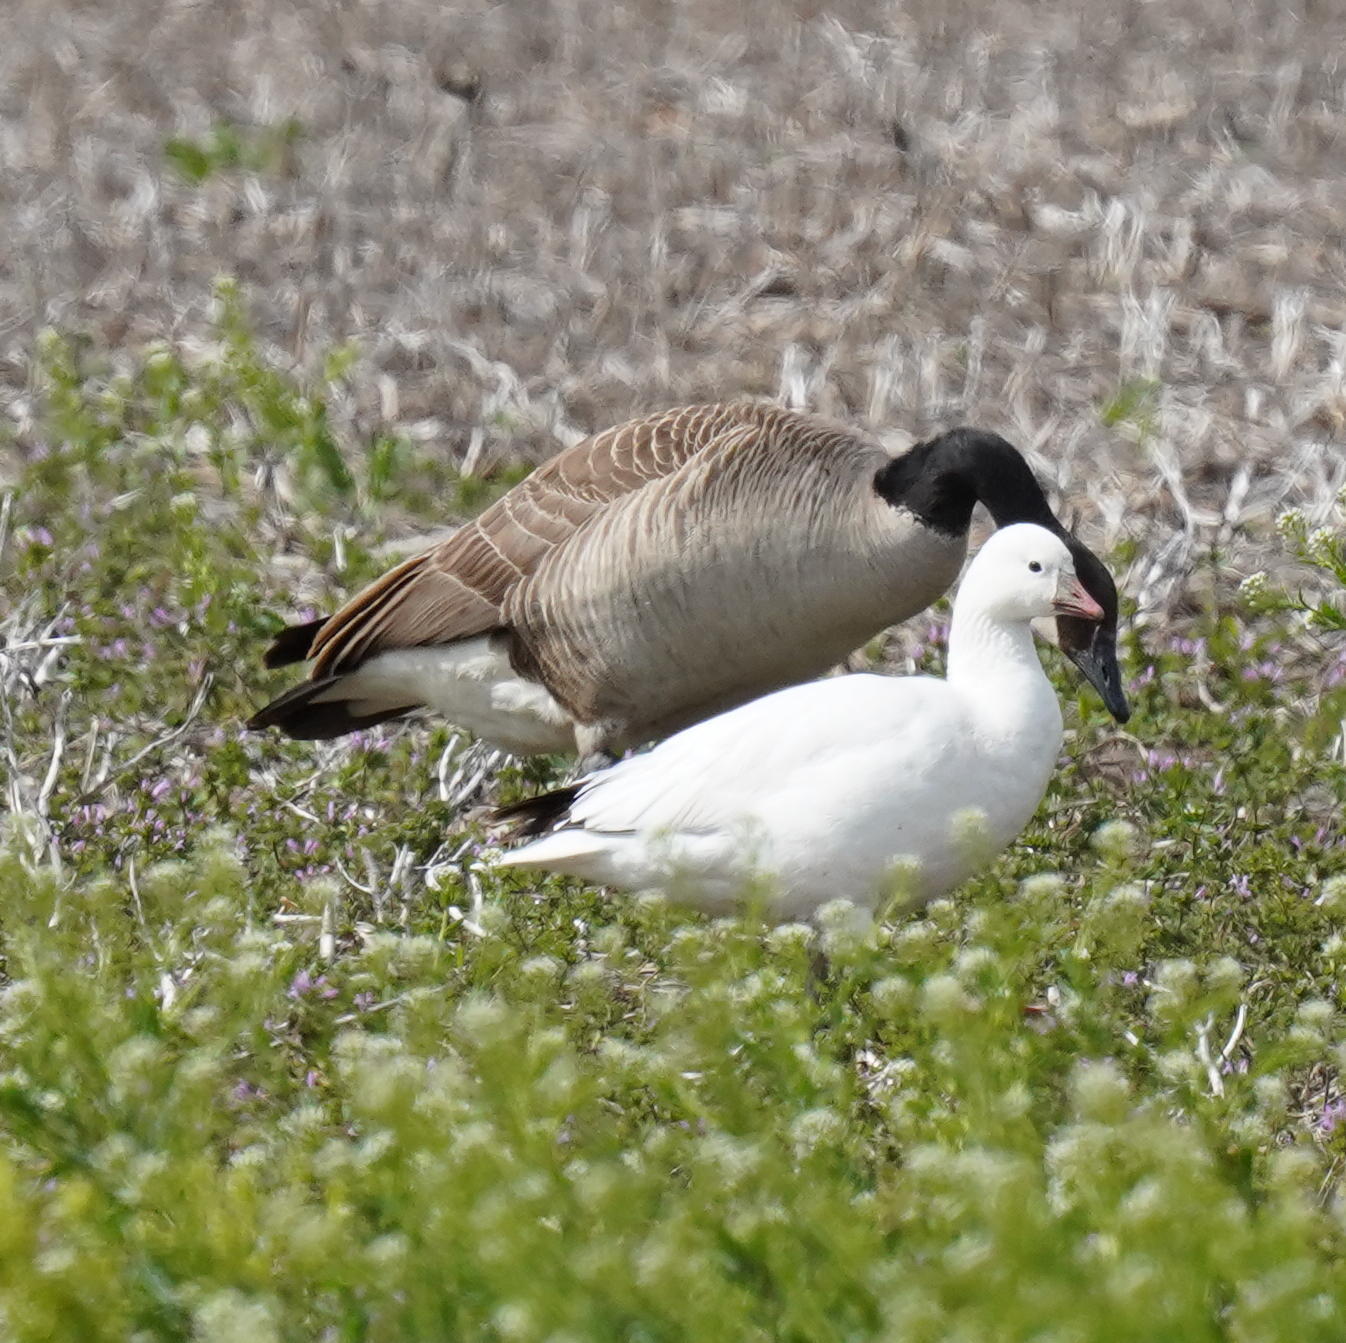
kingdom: Animalia
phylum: Chordata
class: Aves
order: Anseriformes
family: Anatidae
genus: Anser
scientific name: Anser rossii
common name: Ross's goose
